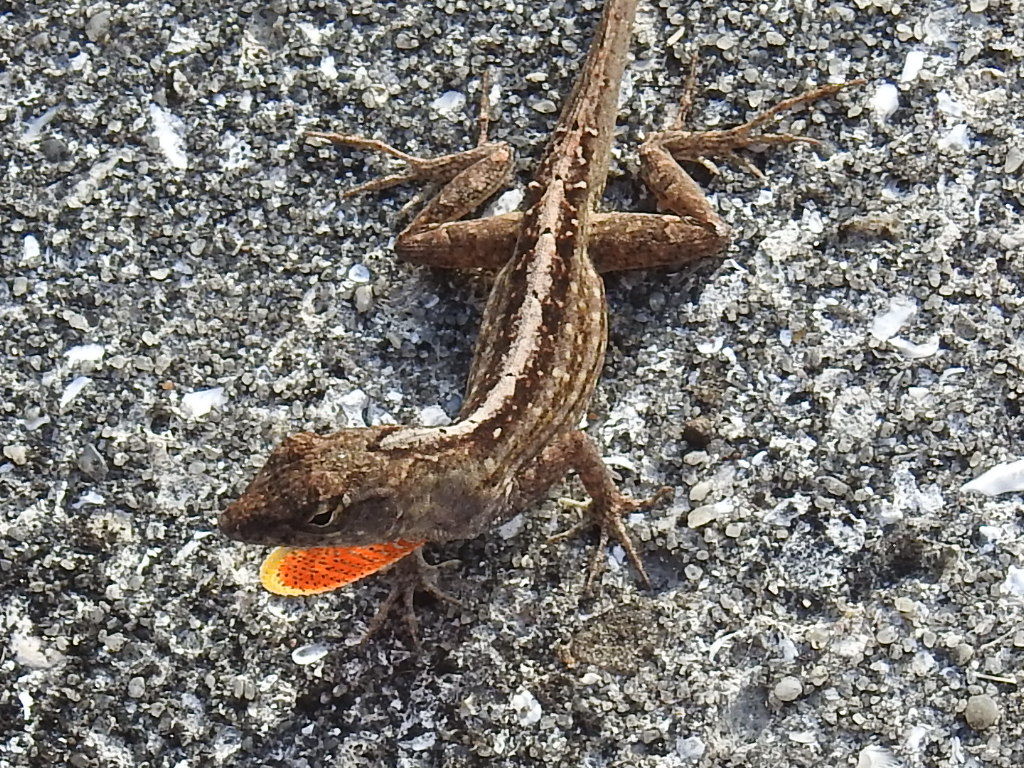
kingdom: Animalia
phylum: Chordata
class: Squamata
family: Dactyloidae
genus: Anolis
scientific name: Anolis sagrei
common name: Brown anole
